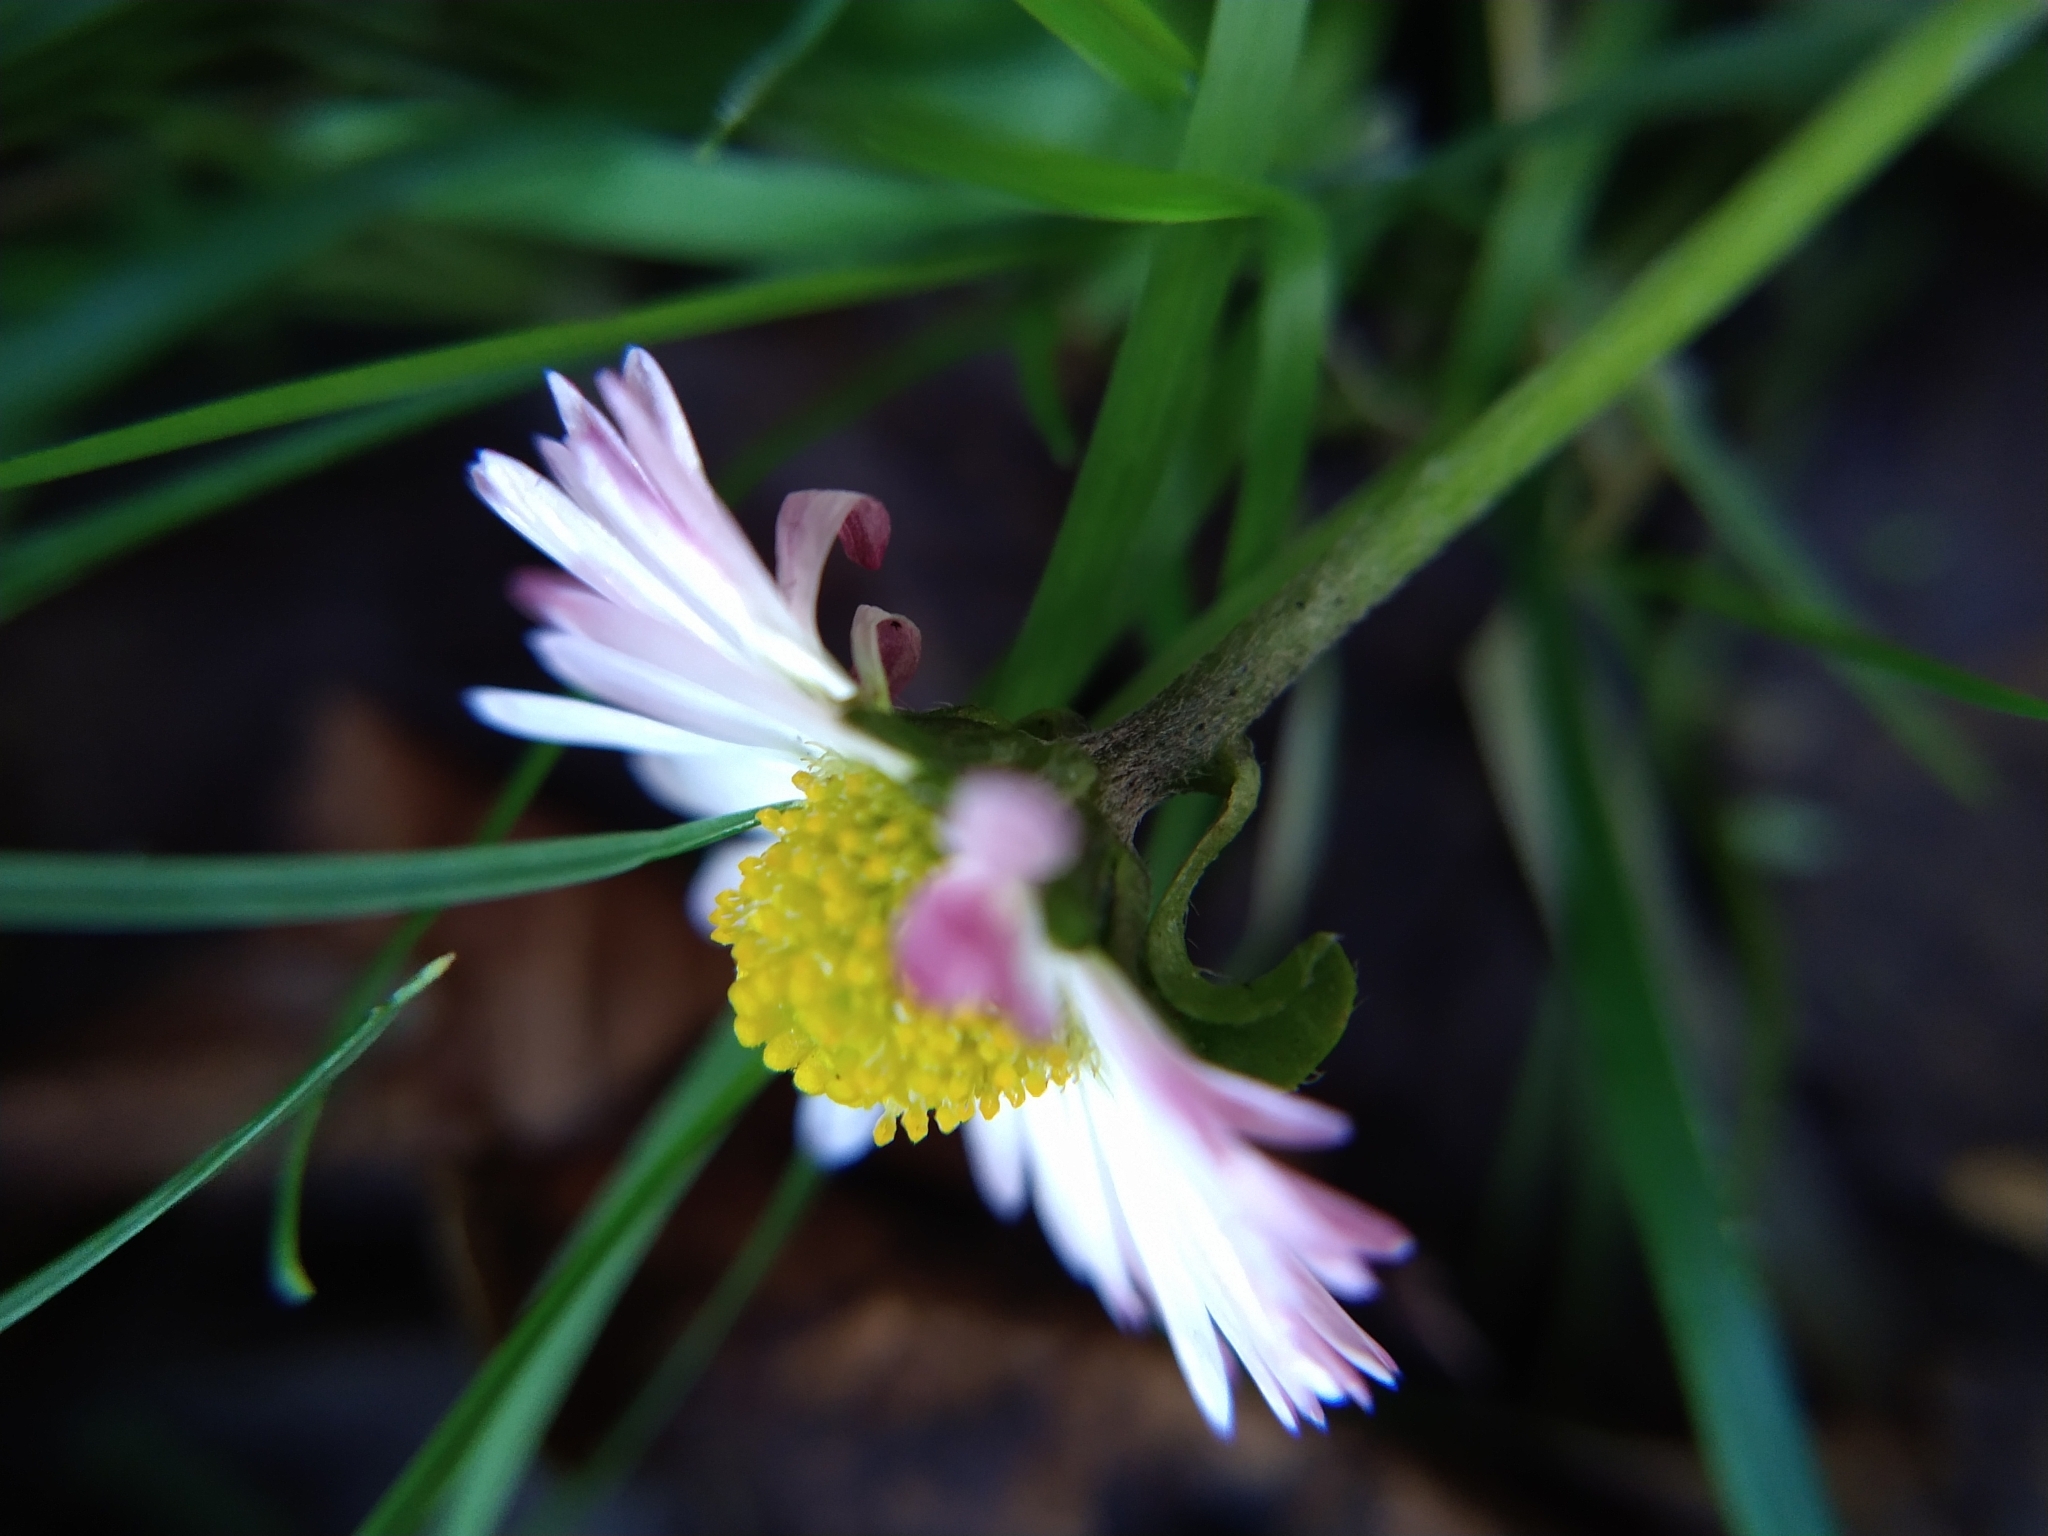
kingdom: Plantae
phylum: Tracheophyta
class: Magnoliopsida
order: Asterales
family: Asteraceae
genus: Bellis
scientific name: Bellis perennis
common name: Lawndaisy
